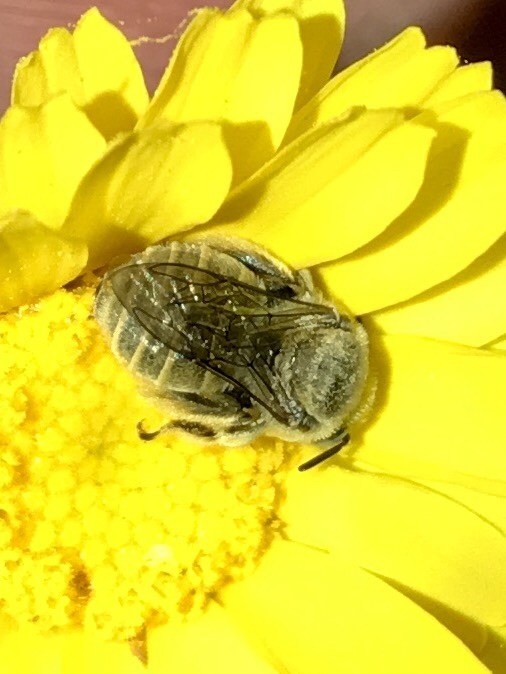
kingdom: Animalia
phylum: Arthropoda
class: Insecta
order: Hymenoptera
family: Apidae
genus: Diadasia
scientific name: Diadasia diminuta
